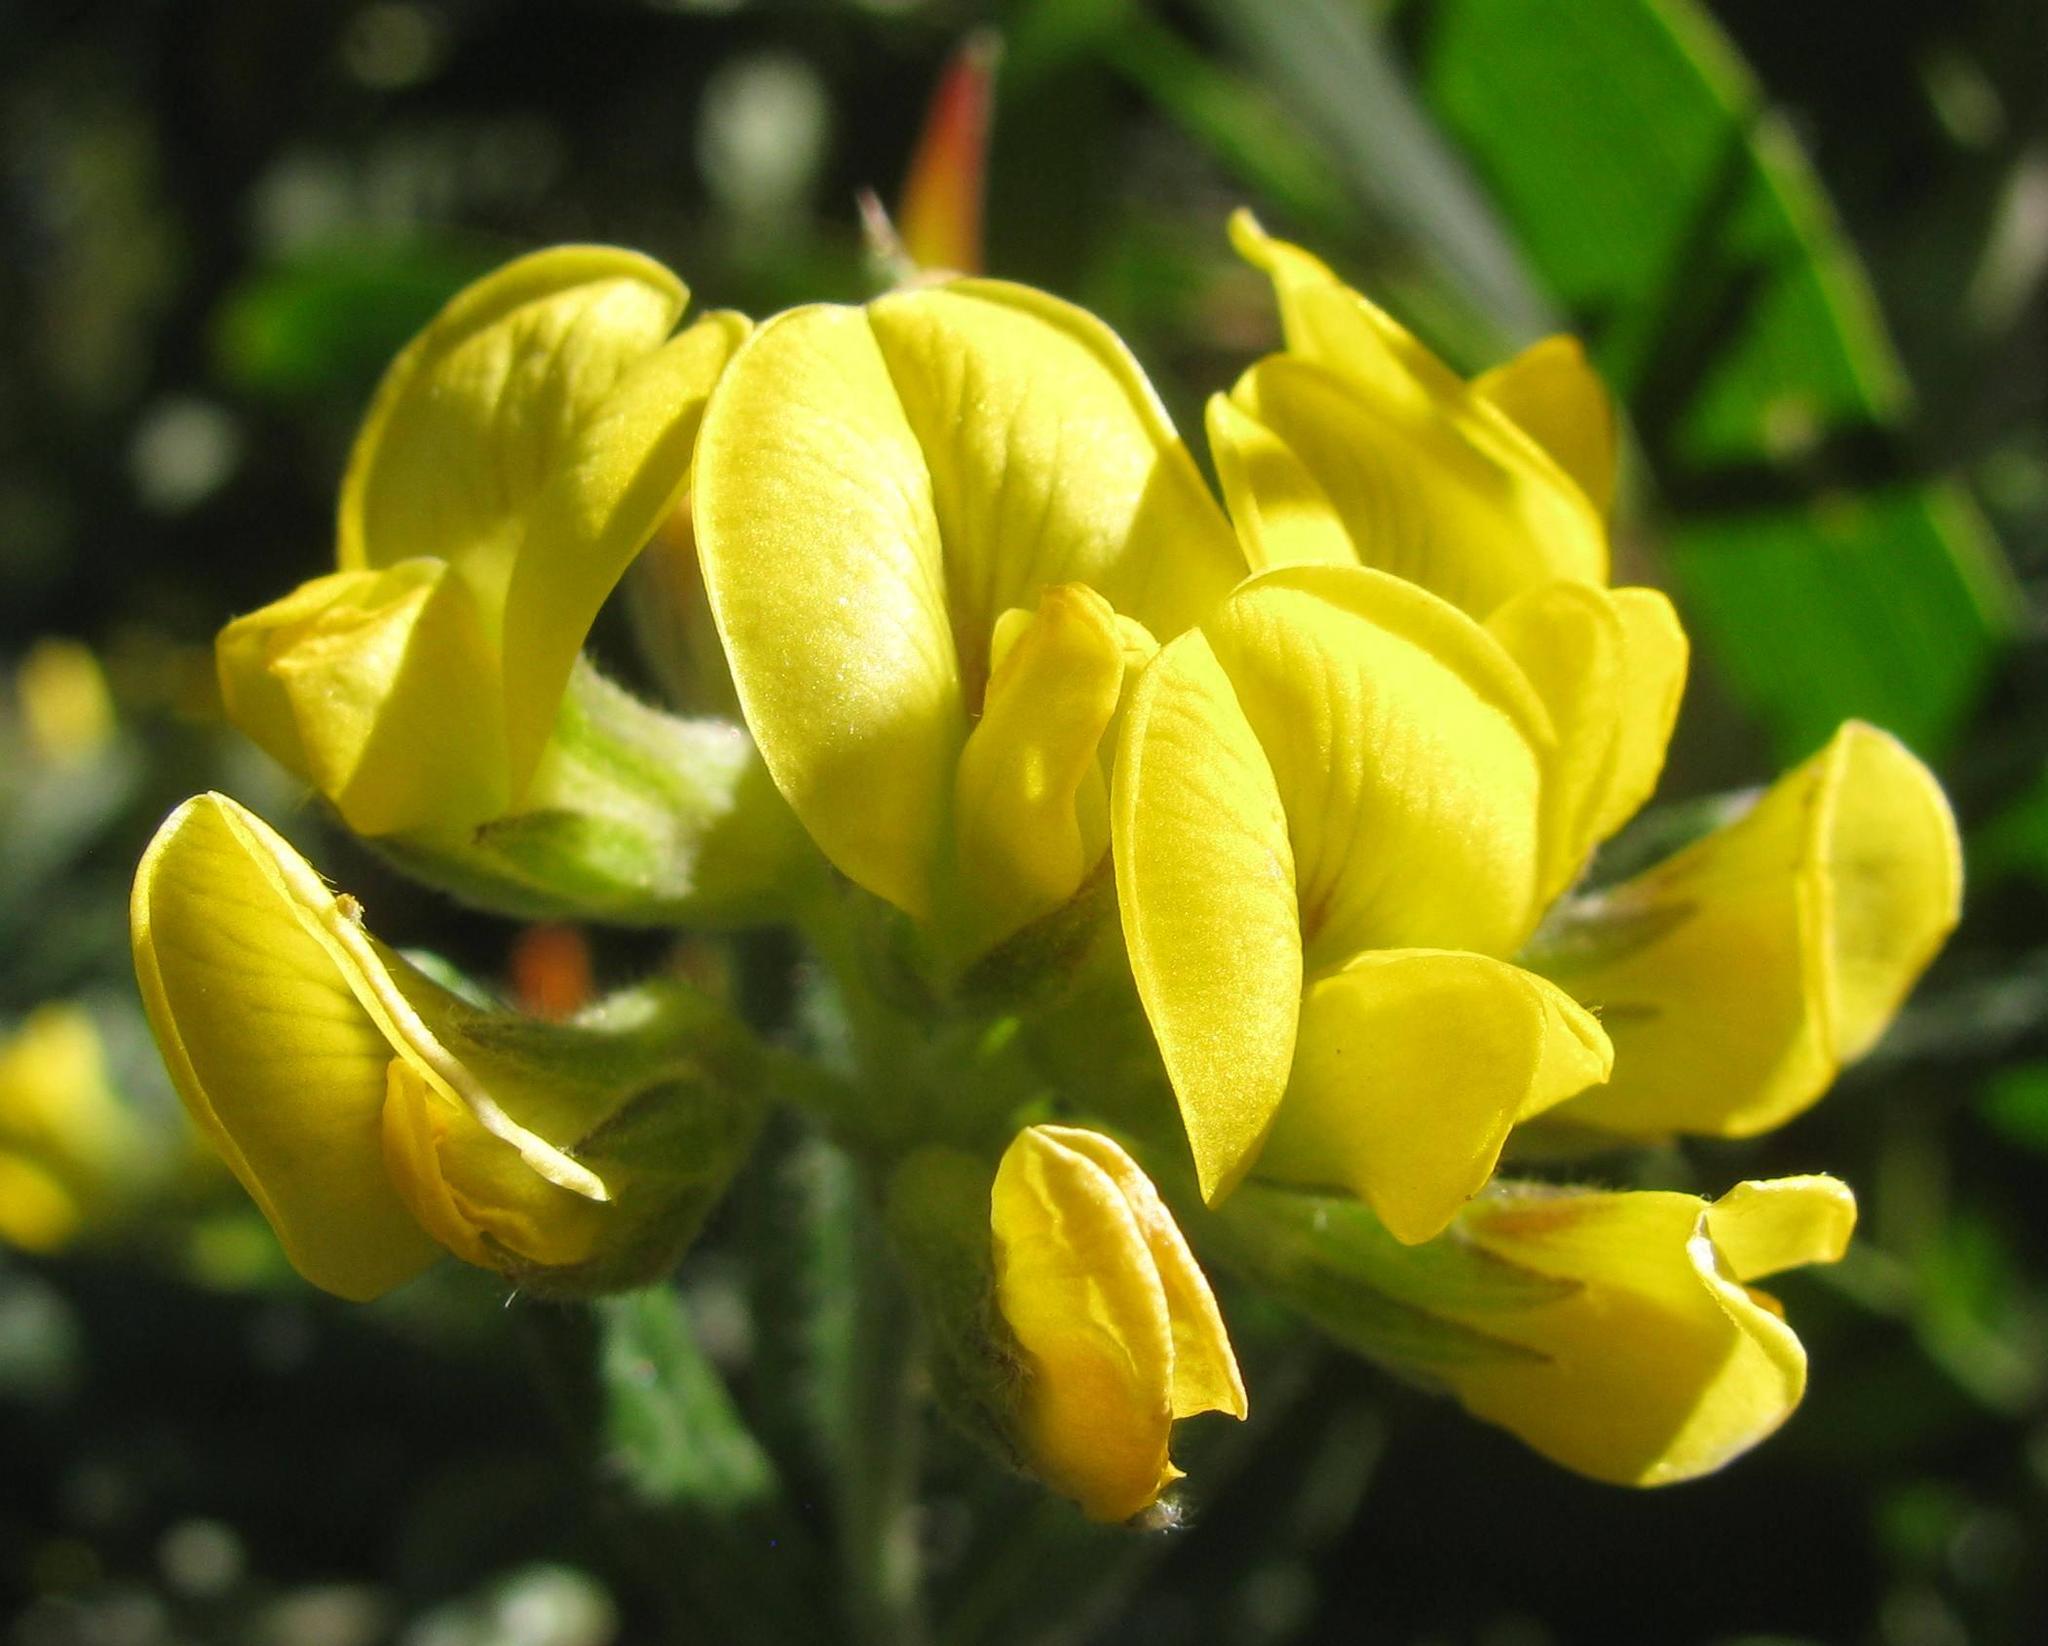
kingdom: Plantae
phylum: Tracheophyta
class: Magnoliopsida
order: Fabales
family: Fabaceae
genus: Rhynchosia
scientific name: Rhynchosia chrysoscias
